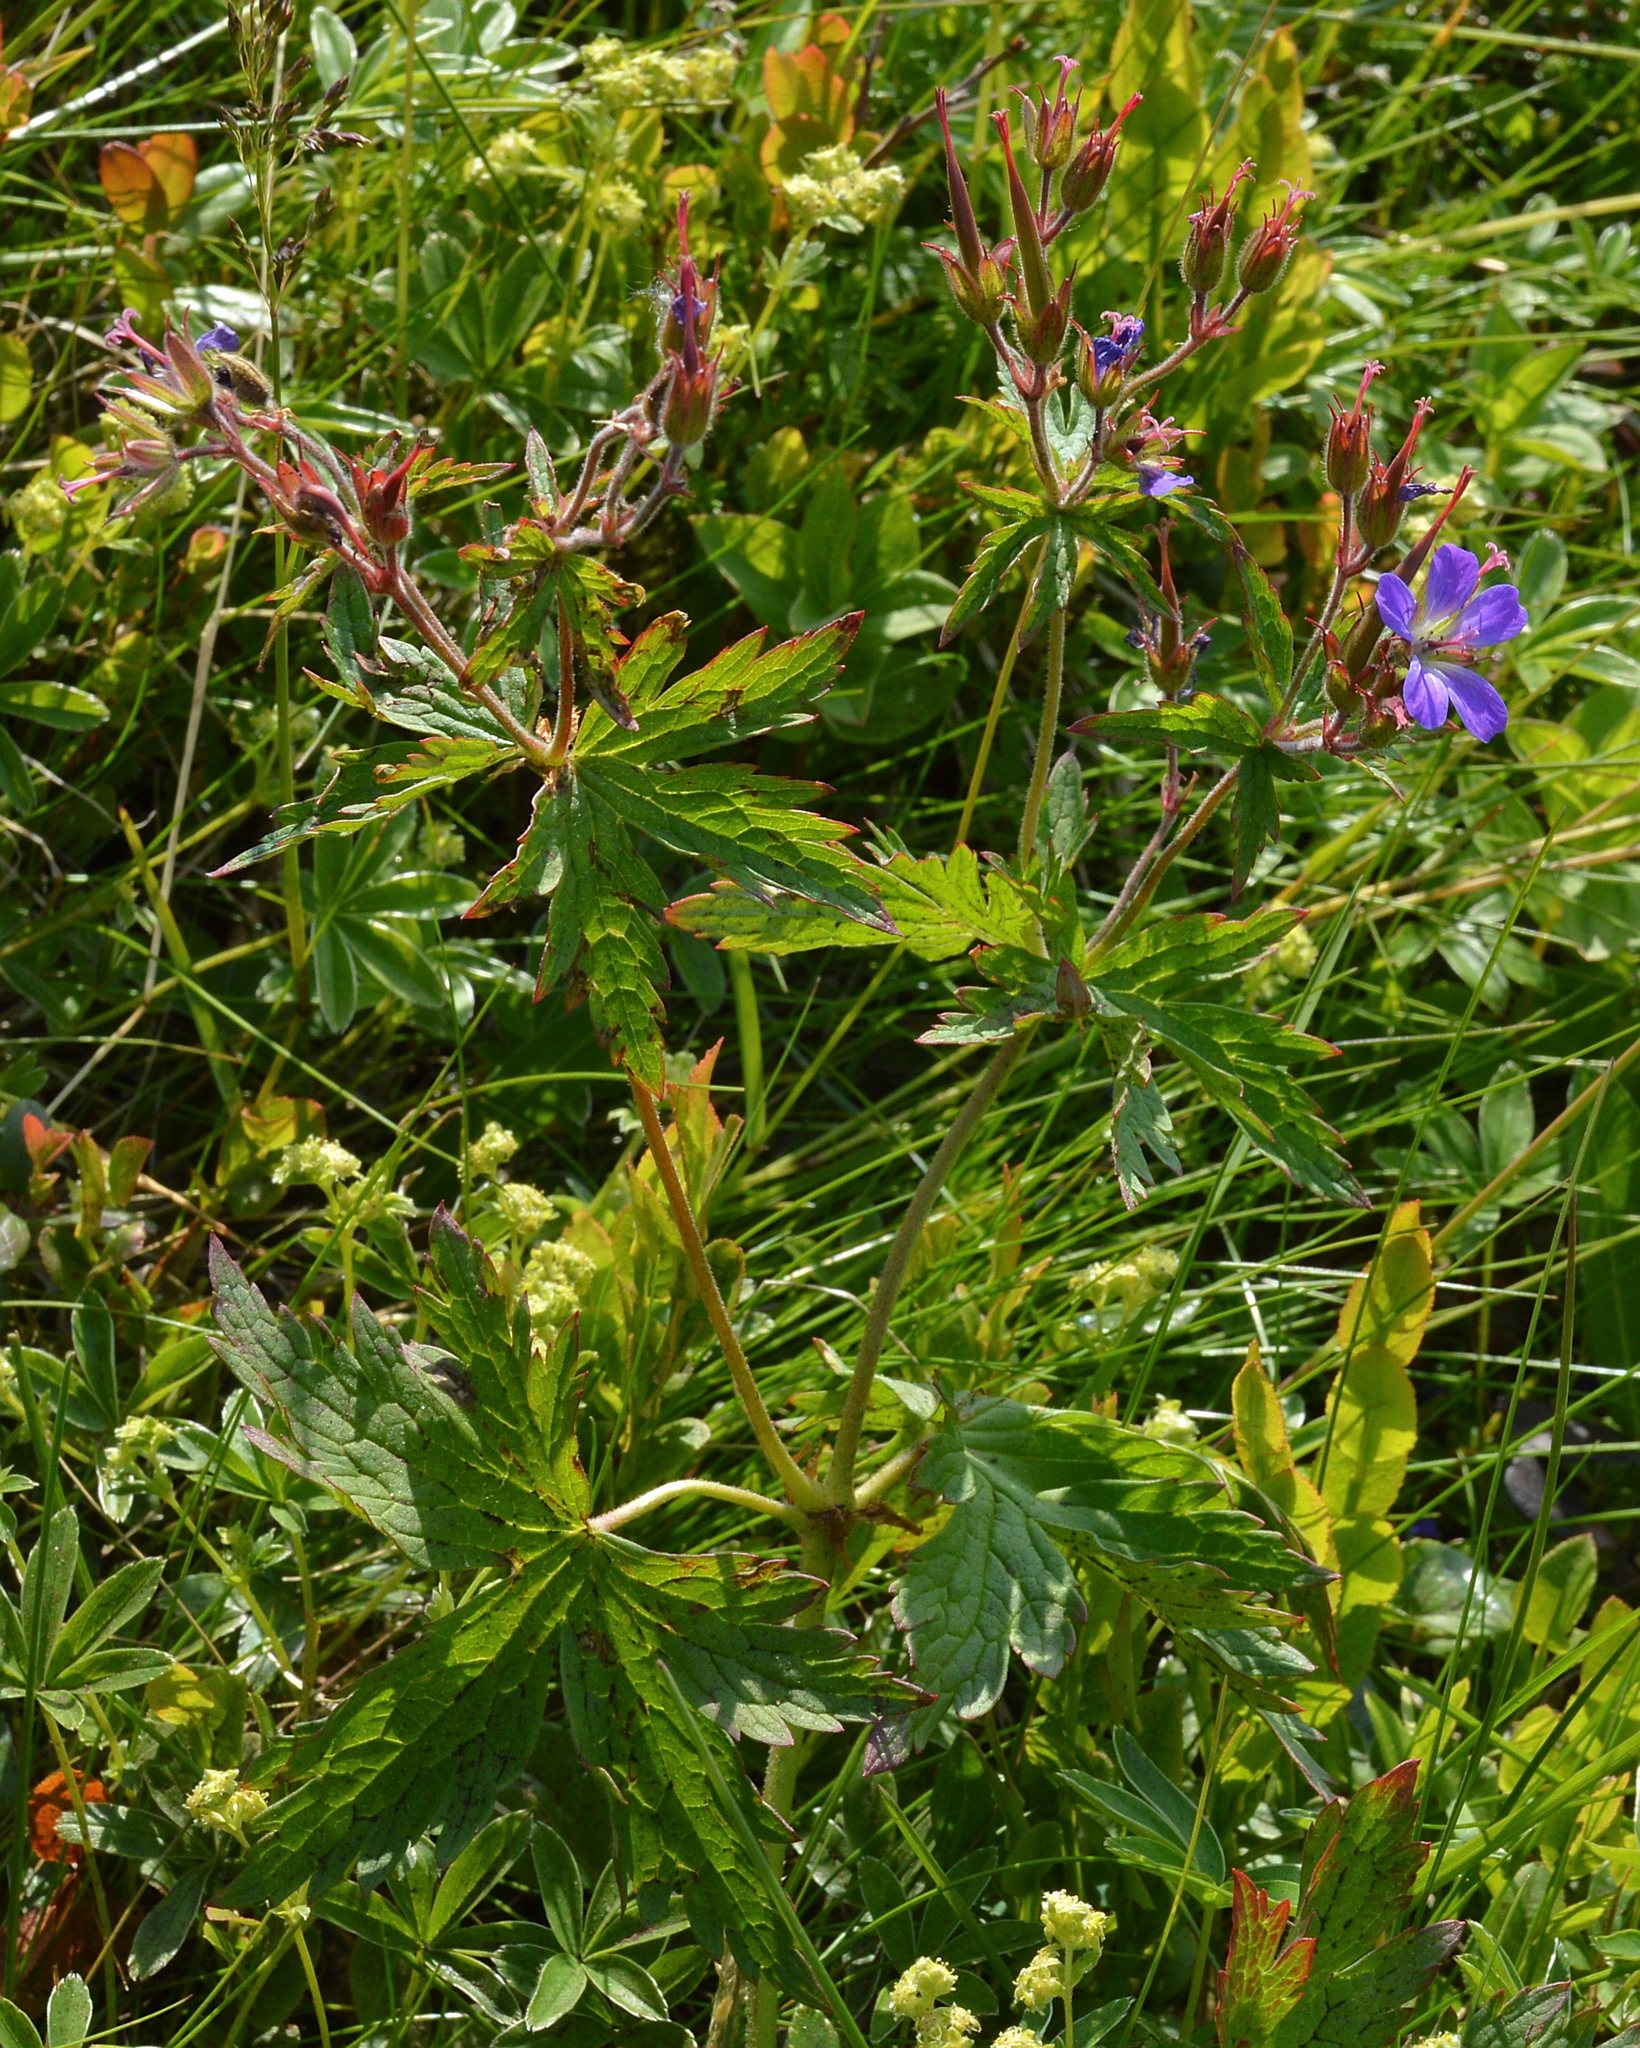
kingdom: Plantae
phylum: Tracheophyta
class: Magnoliopsida
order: Geraniales
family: Geraniaceae
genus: Geranium
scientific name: Geranium sylvaticum
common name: Wood crane's-bill
